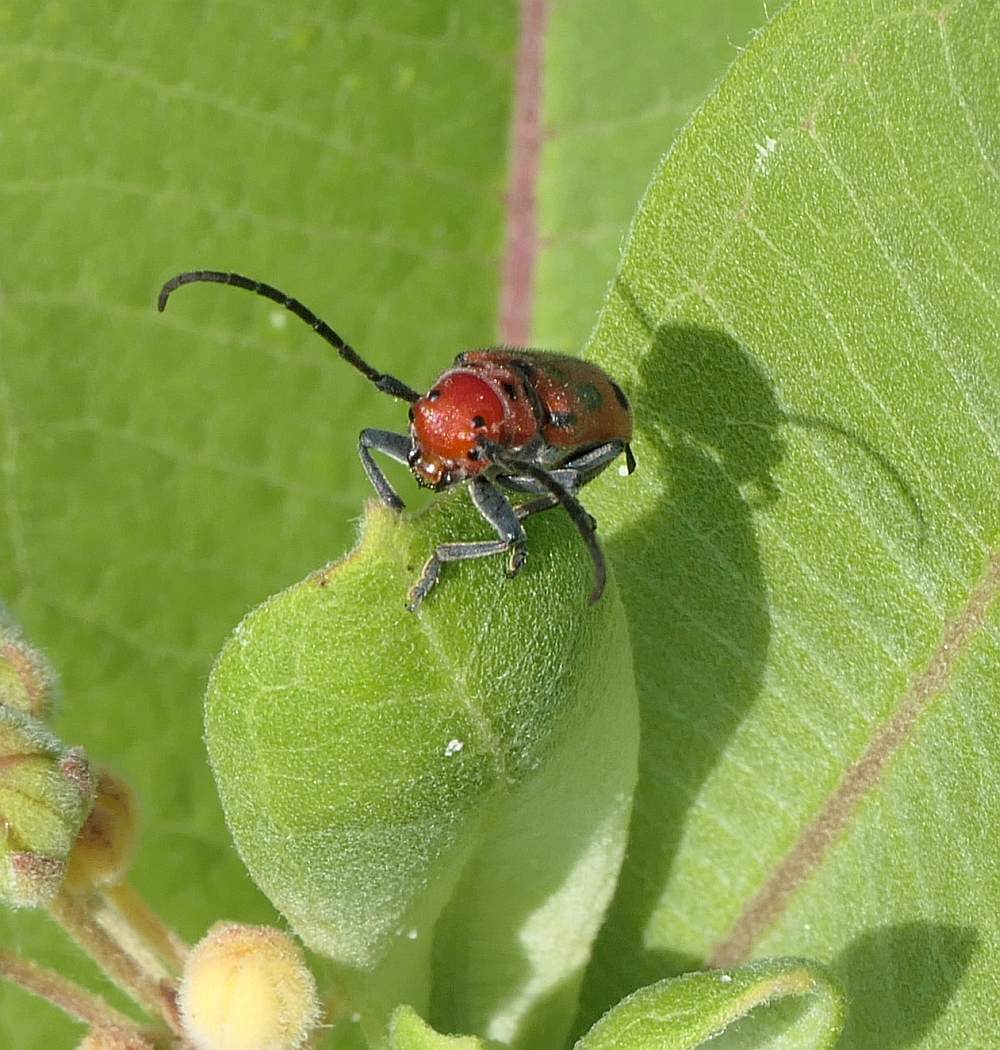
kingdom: Animalia
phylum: Arthropoda
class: Insecta
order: Coleoptera
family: Cerambycidae
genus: Tetraopes
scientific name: Tetraopes tetrophthalmus
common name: Red milkweed beetle
